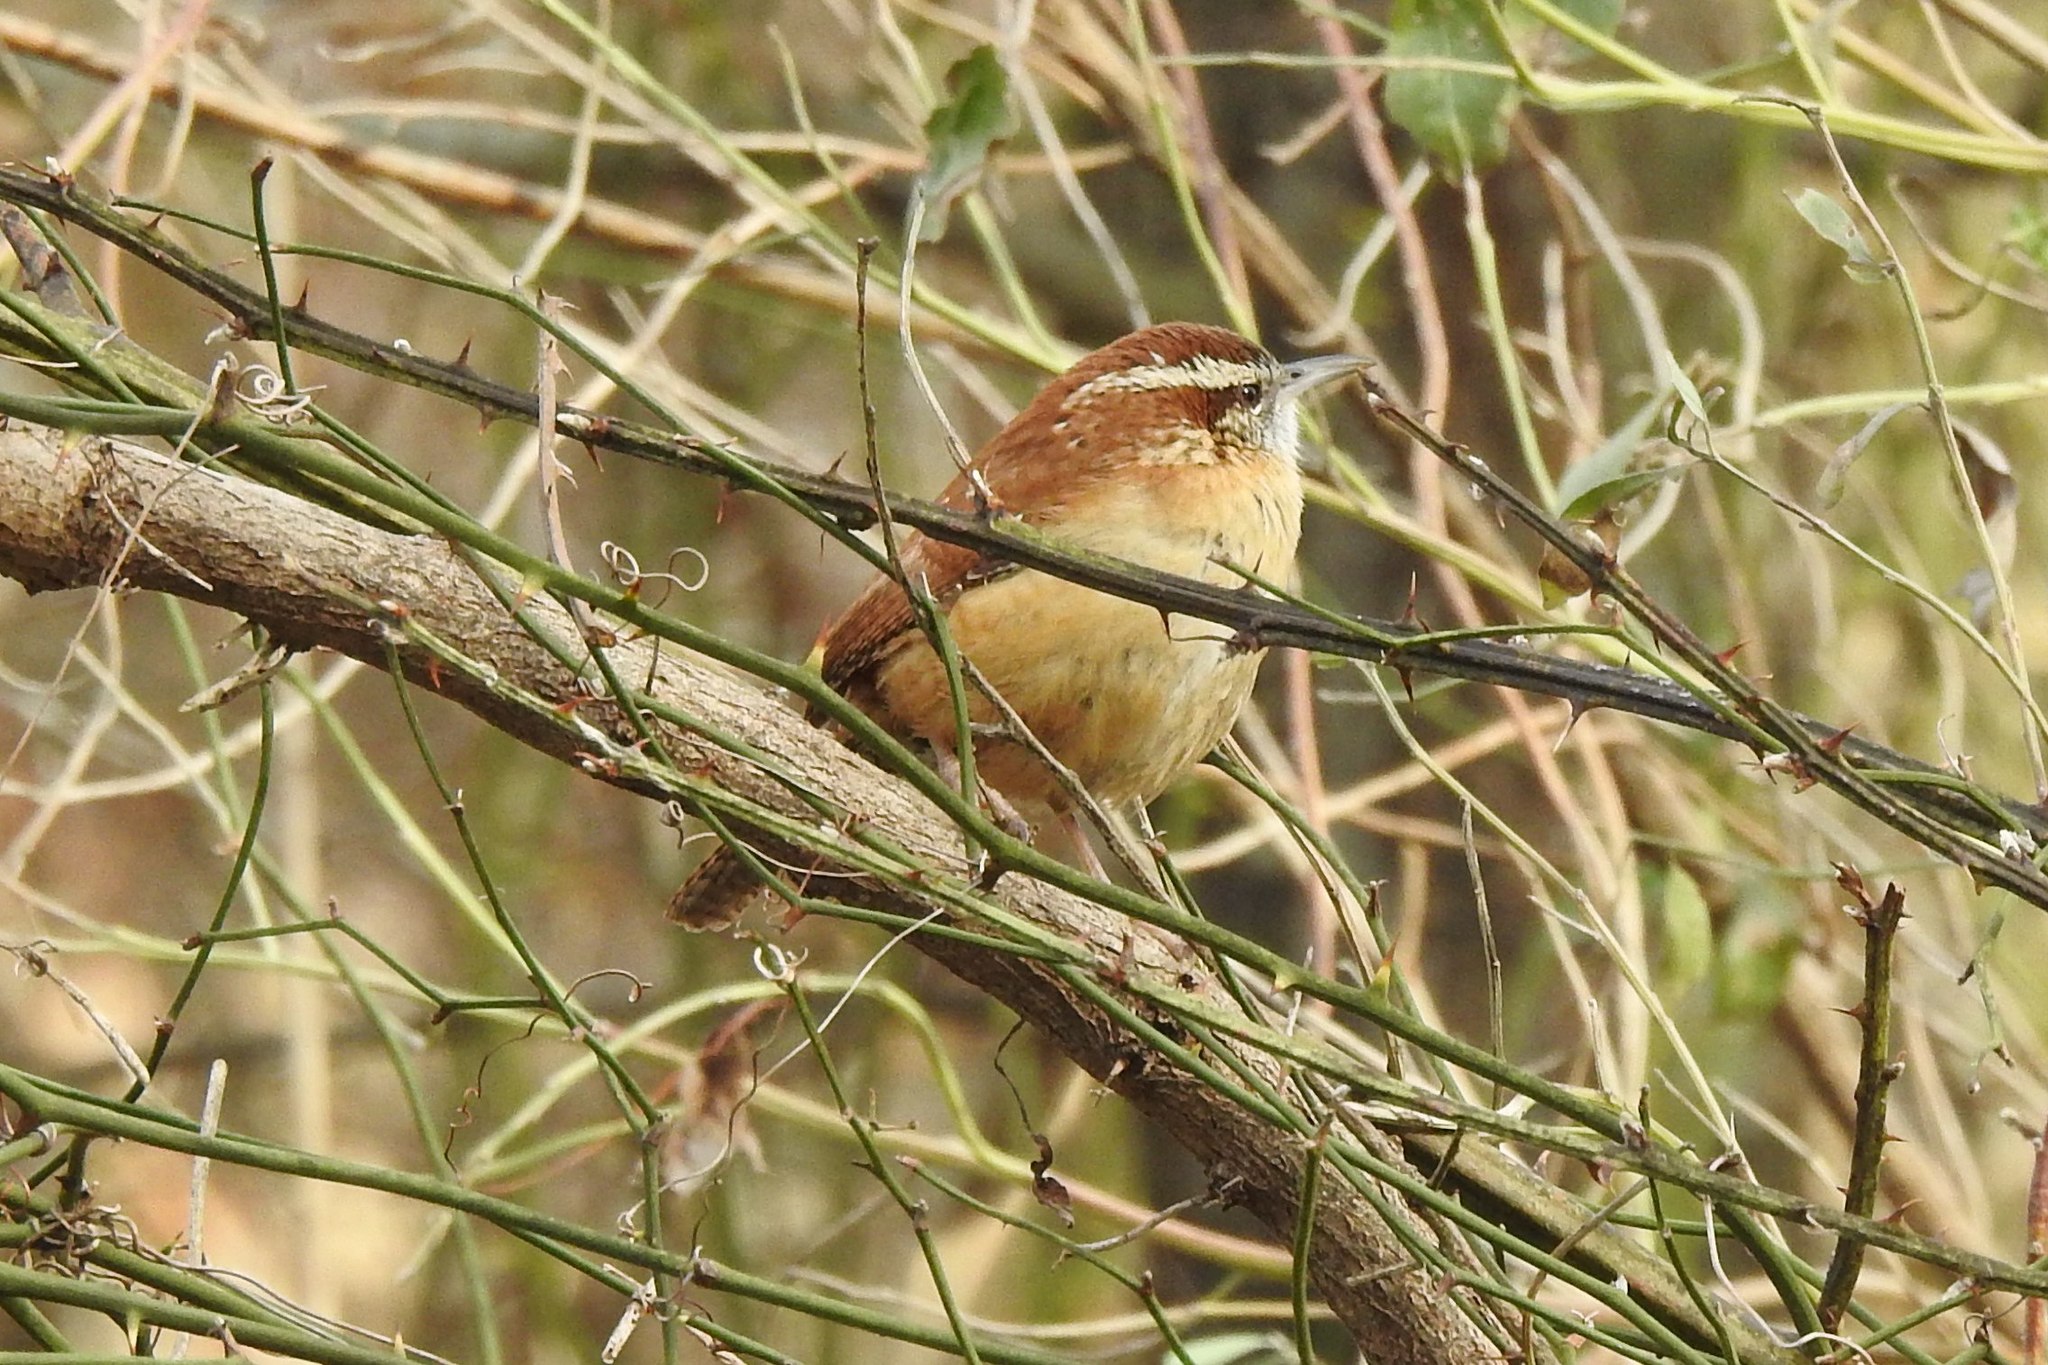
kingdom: Animalia
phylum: Chordata
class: Aves
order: Passeriformes
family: Troglodytidae
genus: Thryothorus
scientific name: Thryothorus ludovicianus
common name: Carolina wren
